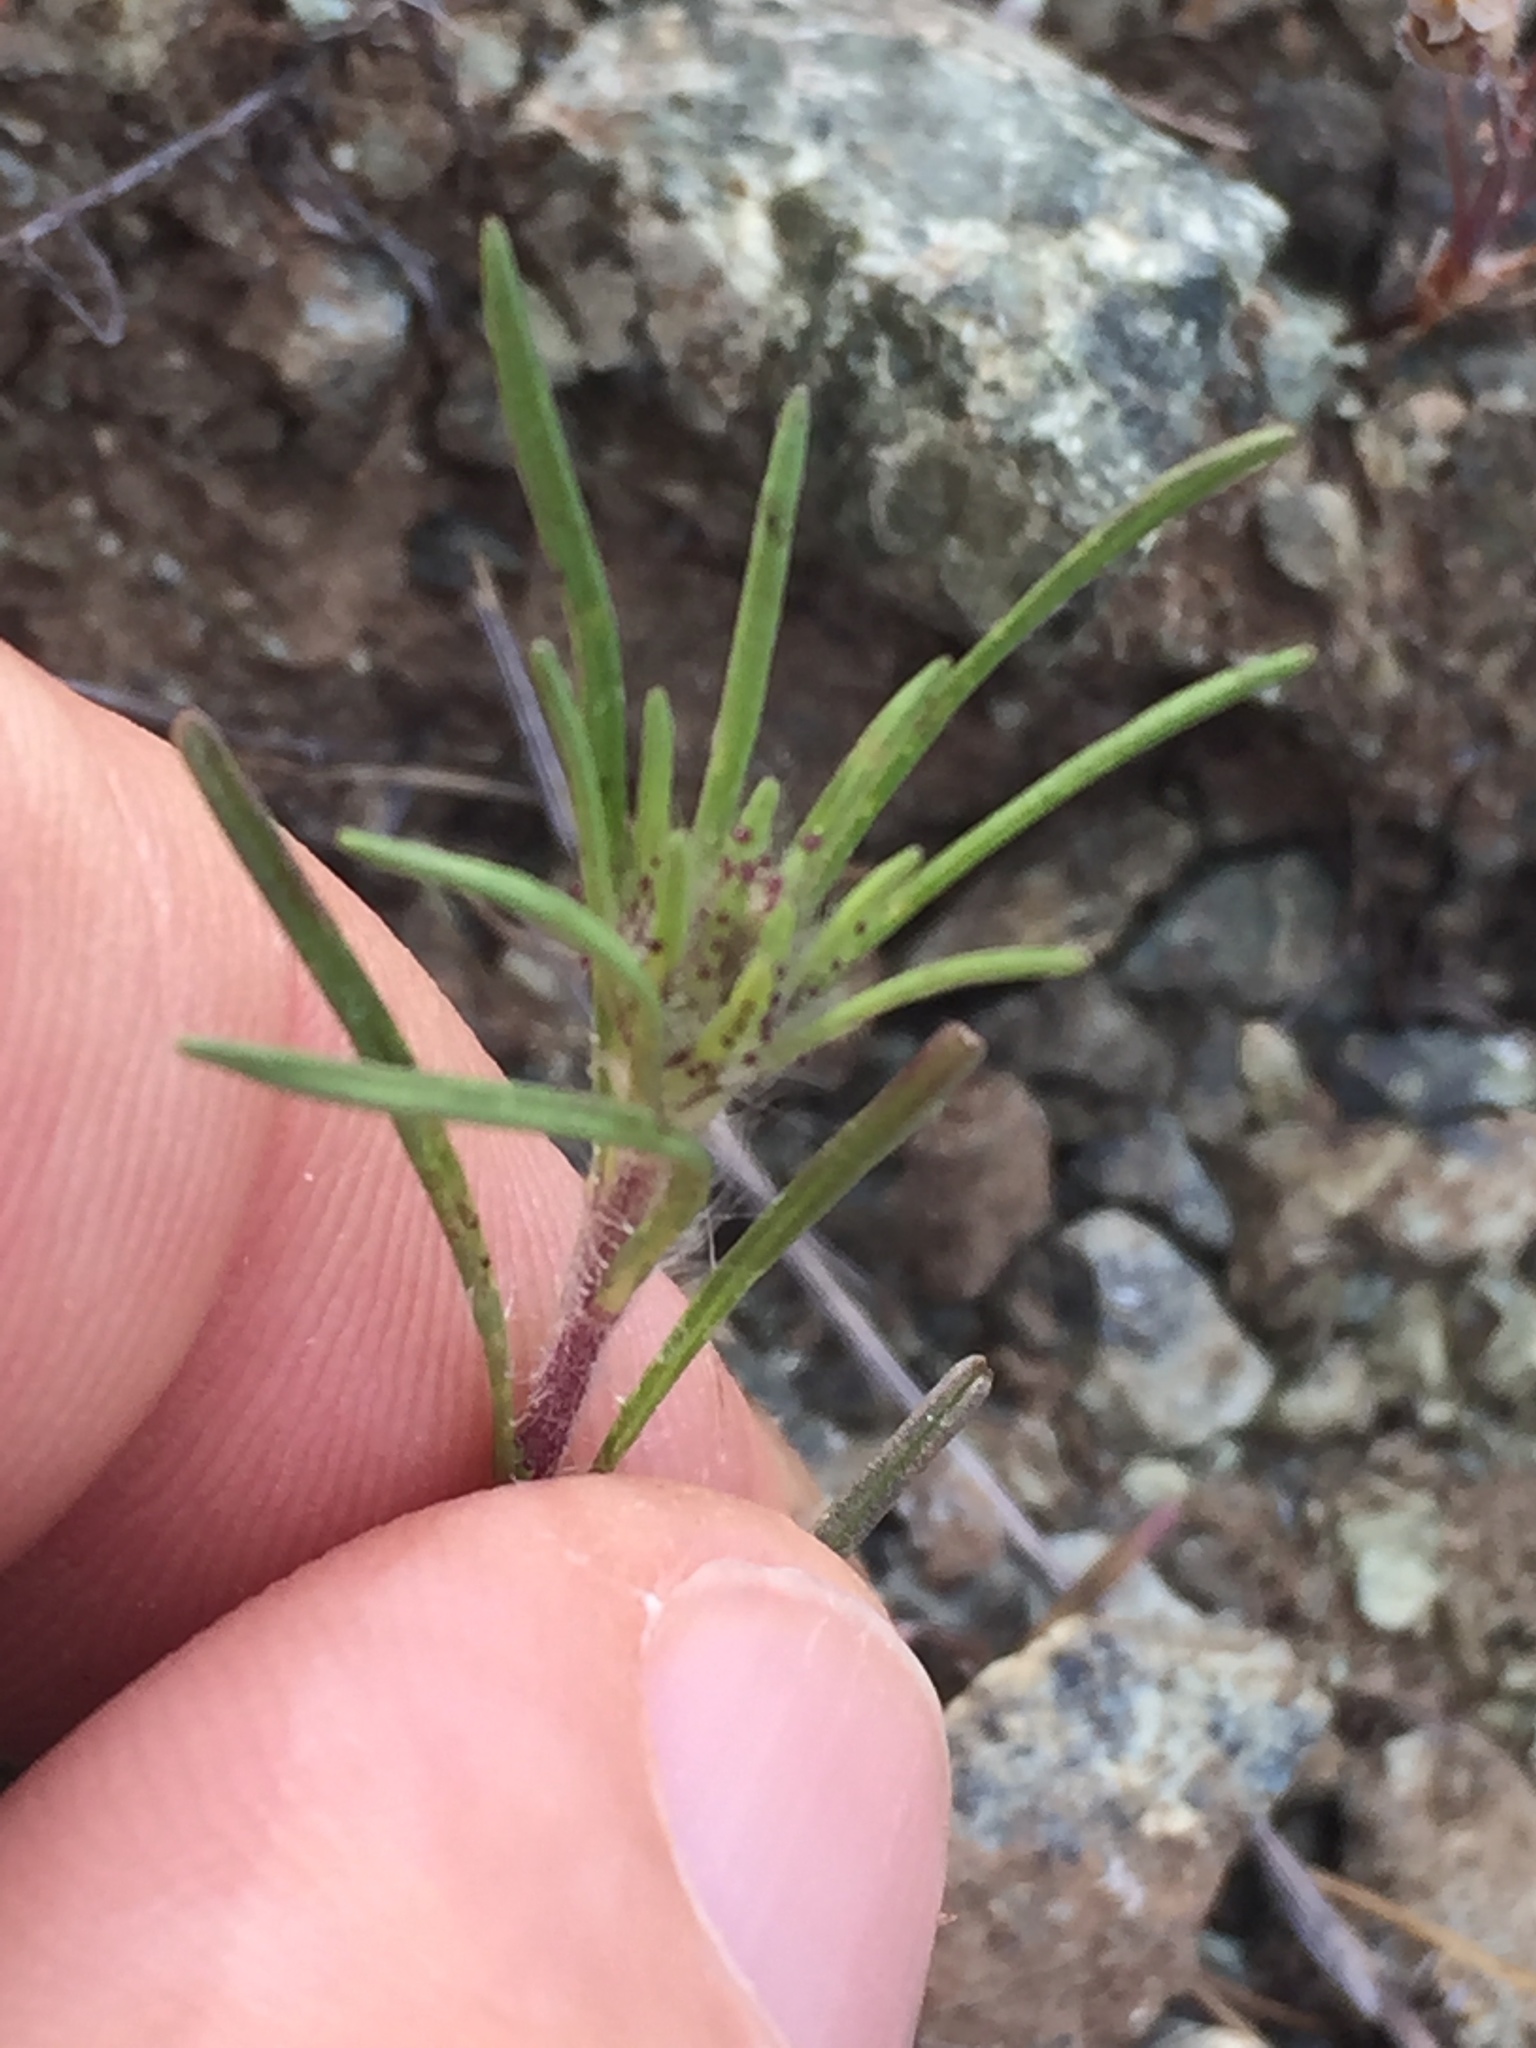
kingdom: Plantae
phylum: Tracheophyta
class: Magnoliopsida
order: Asterales
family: Asteraceae
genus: Calycadenia
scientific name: Calycadenia multiglandulosa
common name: Sticky calycadenia
